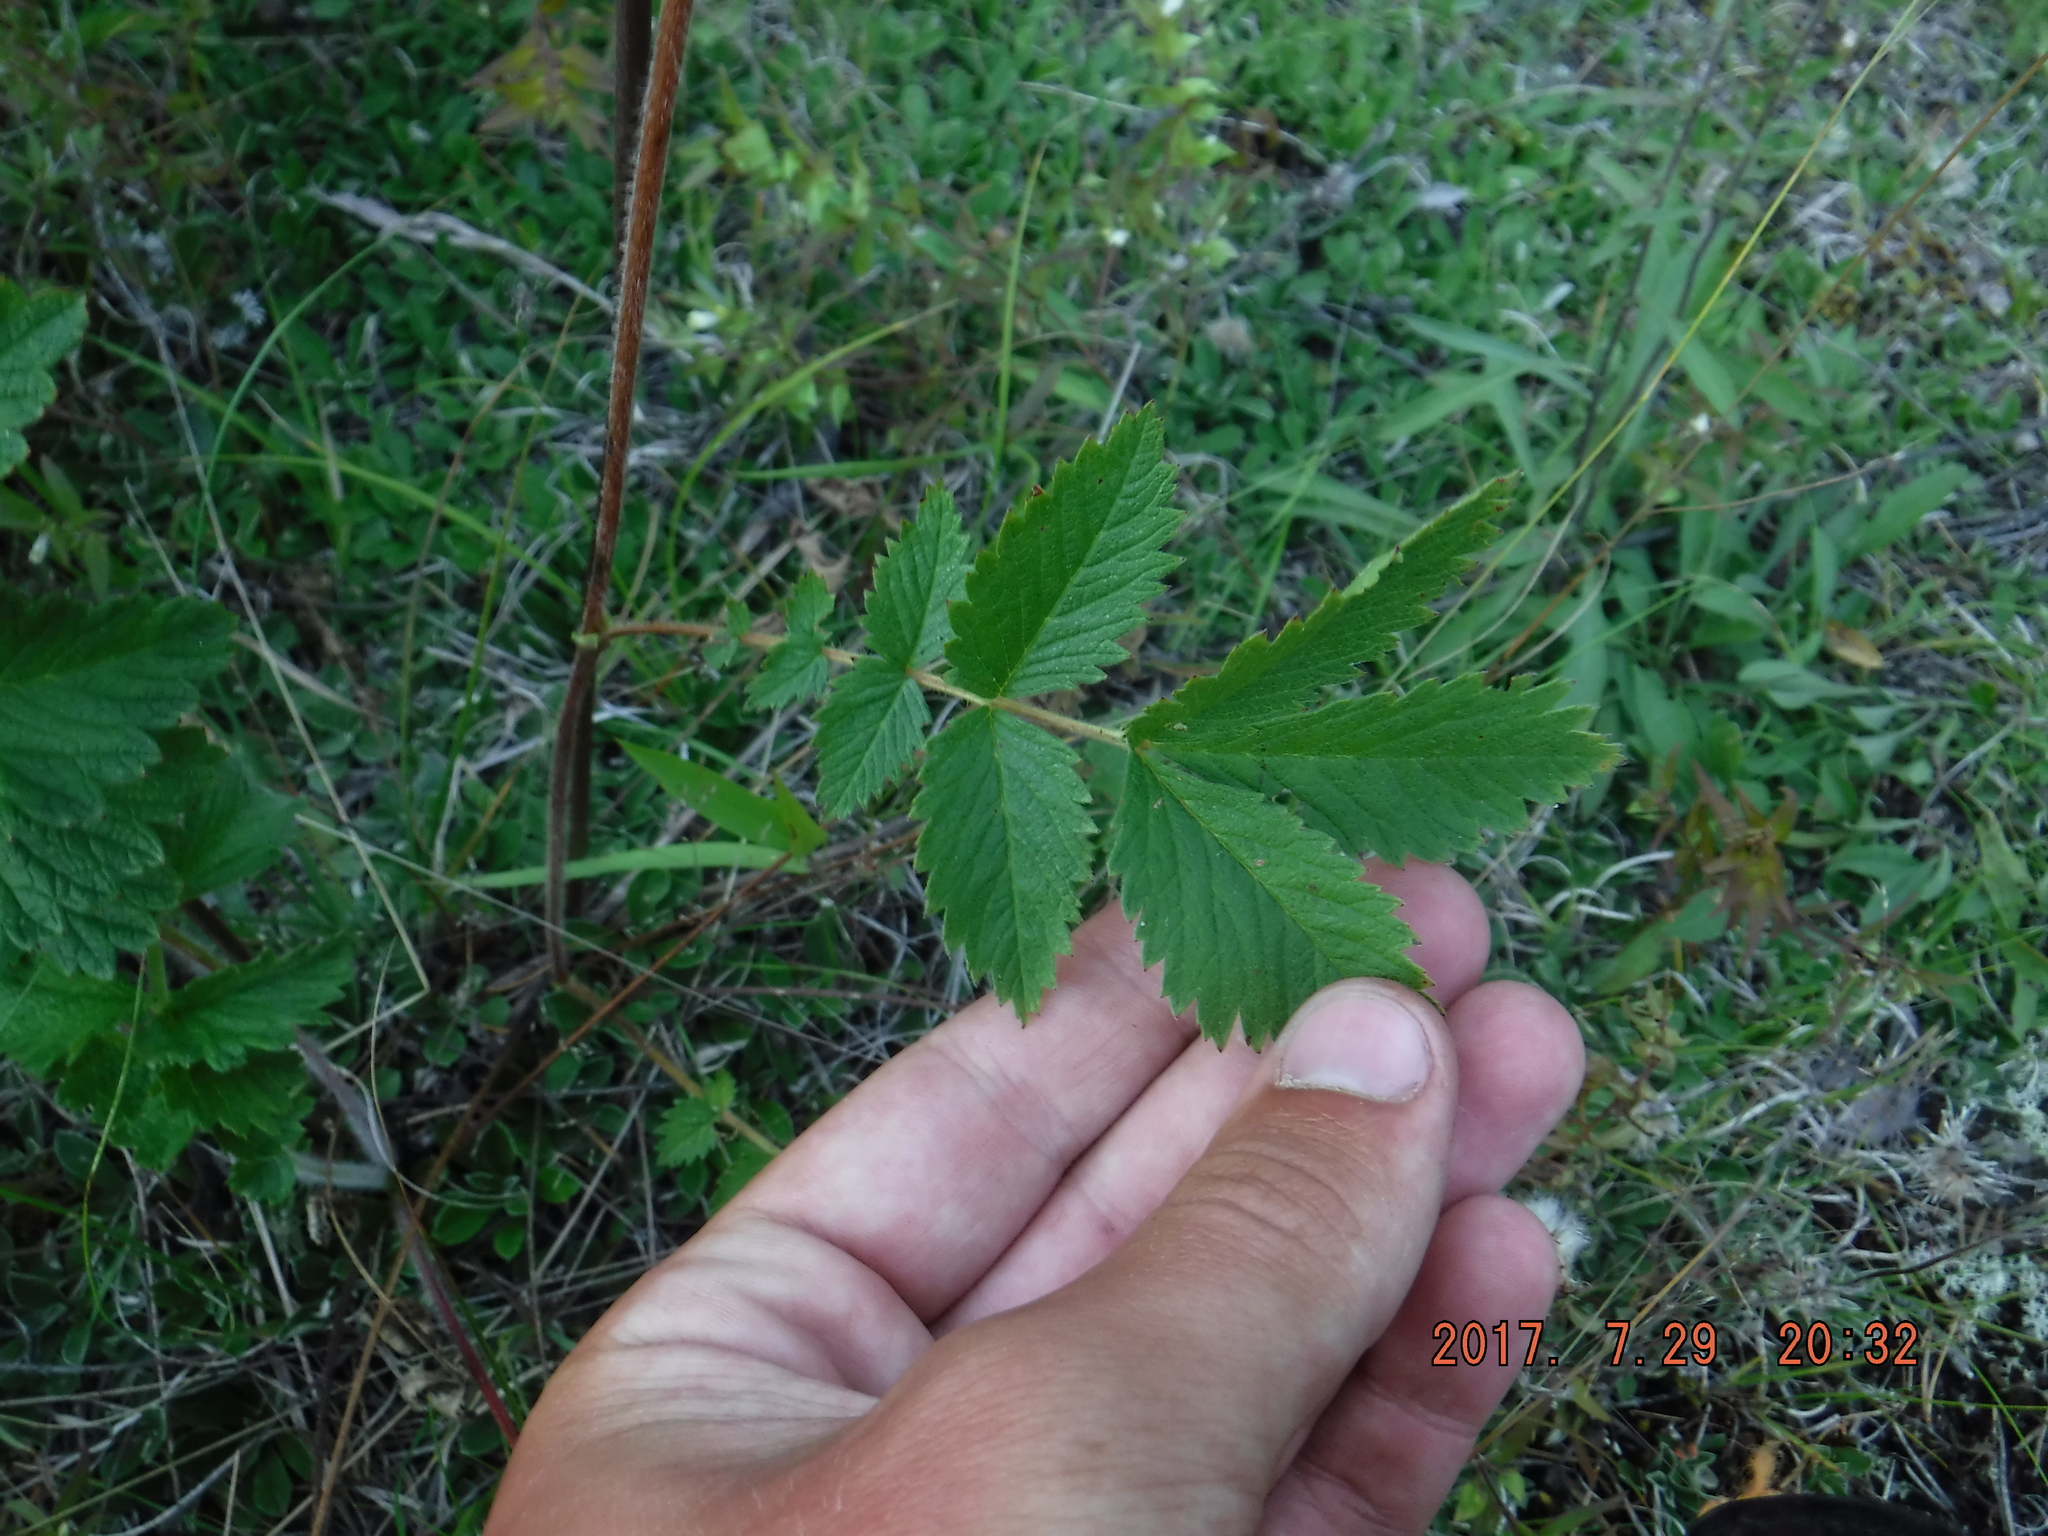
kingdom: Plantae
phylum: Tracheophyta
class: Magnoliopsida
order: Rosales
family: Rosaceae
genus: Drymocallis
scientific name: Drymocallis arguta
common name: Tall cinquefoil
